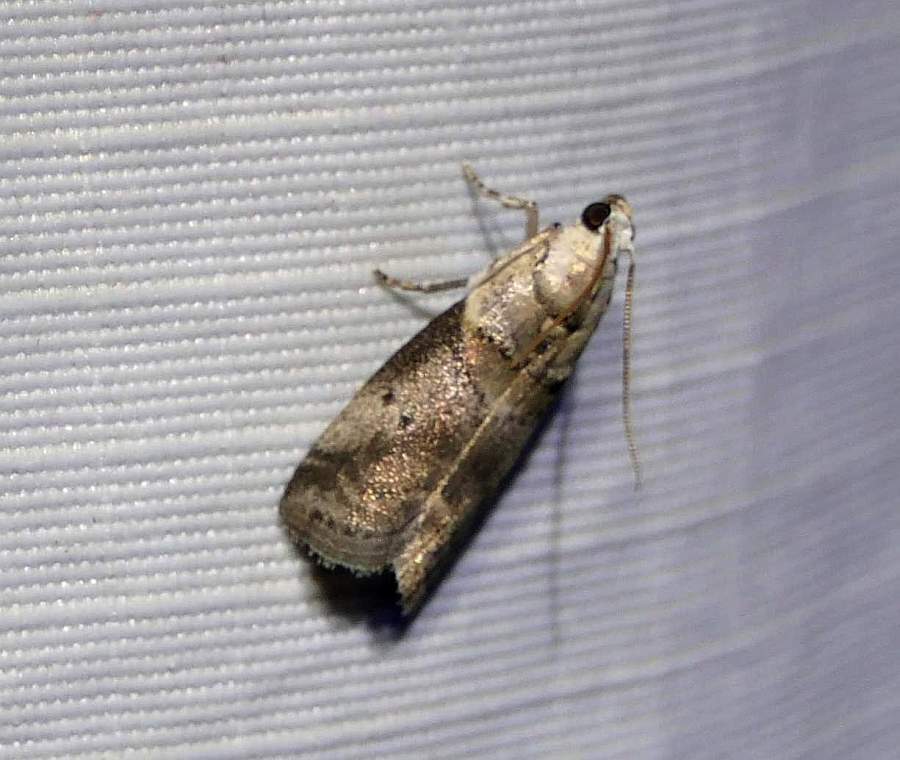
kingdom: Animalia
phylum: Arthropoda
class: Insecta
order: Lepidoptera
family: Pyralidae
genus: Acrobasis
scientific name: Acrobasis juglandis
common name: Pecan leaf casebearer moth
